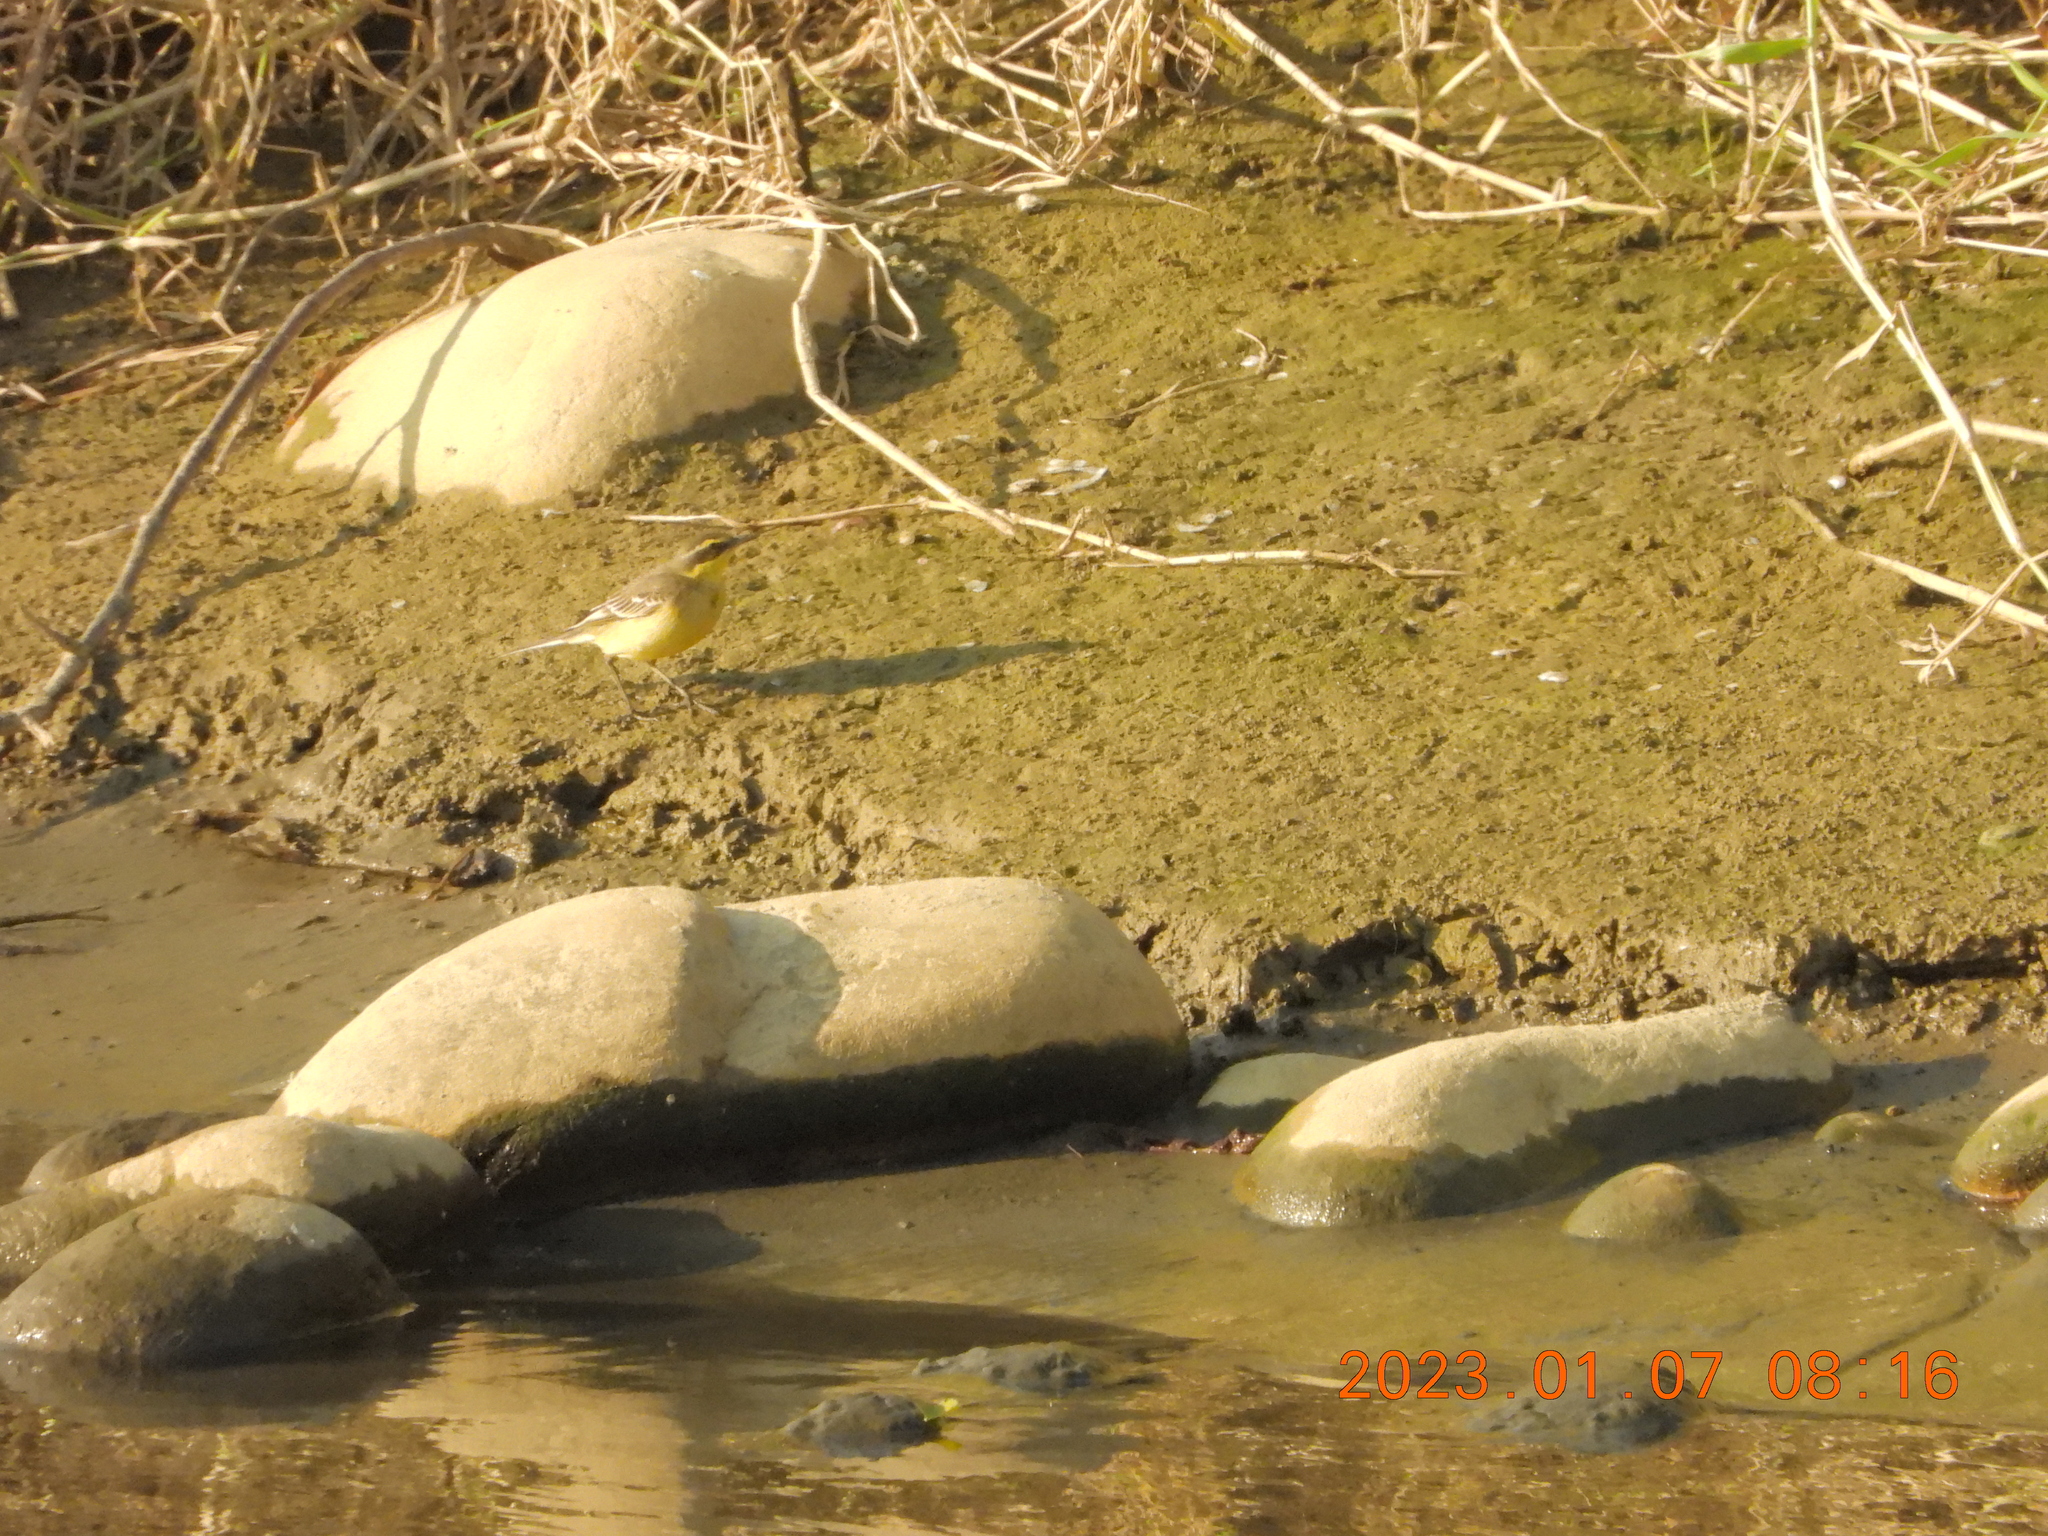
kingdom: Animalia
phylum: Chordata
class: Aves
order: Passeriformes
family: Motacillidae
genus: Motacilla
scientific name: Motacilla tschutschensis
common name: Eastern yellow wagtail
